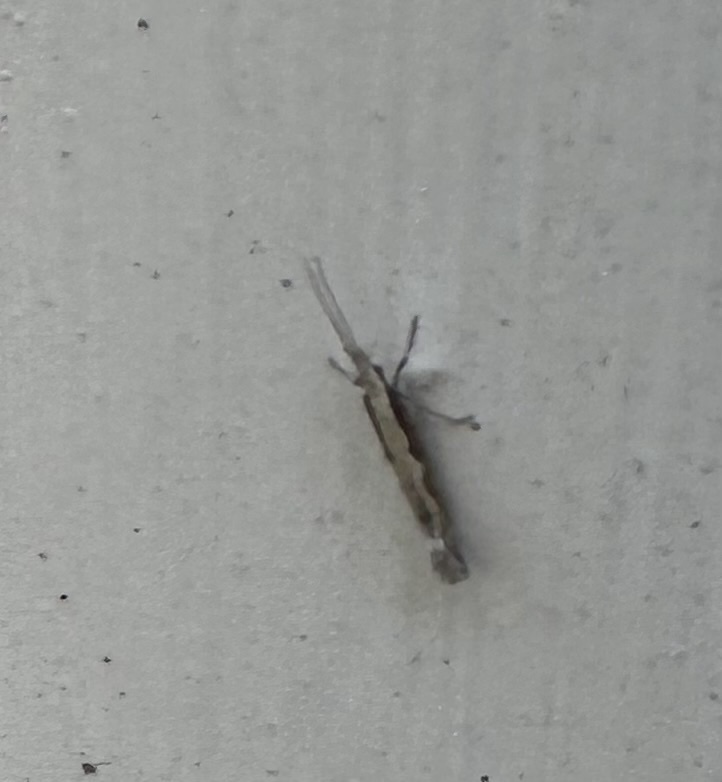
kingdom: Animalia
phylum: Arthropoda
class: Insecta
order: Lepidoptera
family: Plutellidae
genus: Plutella
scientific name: Plutella xylostella
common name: Diamond-back moth
